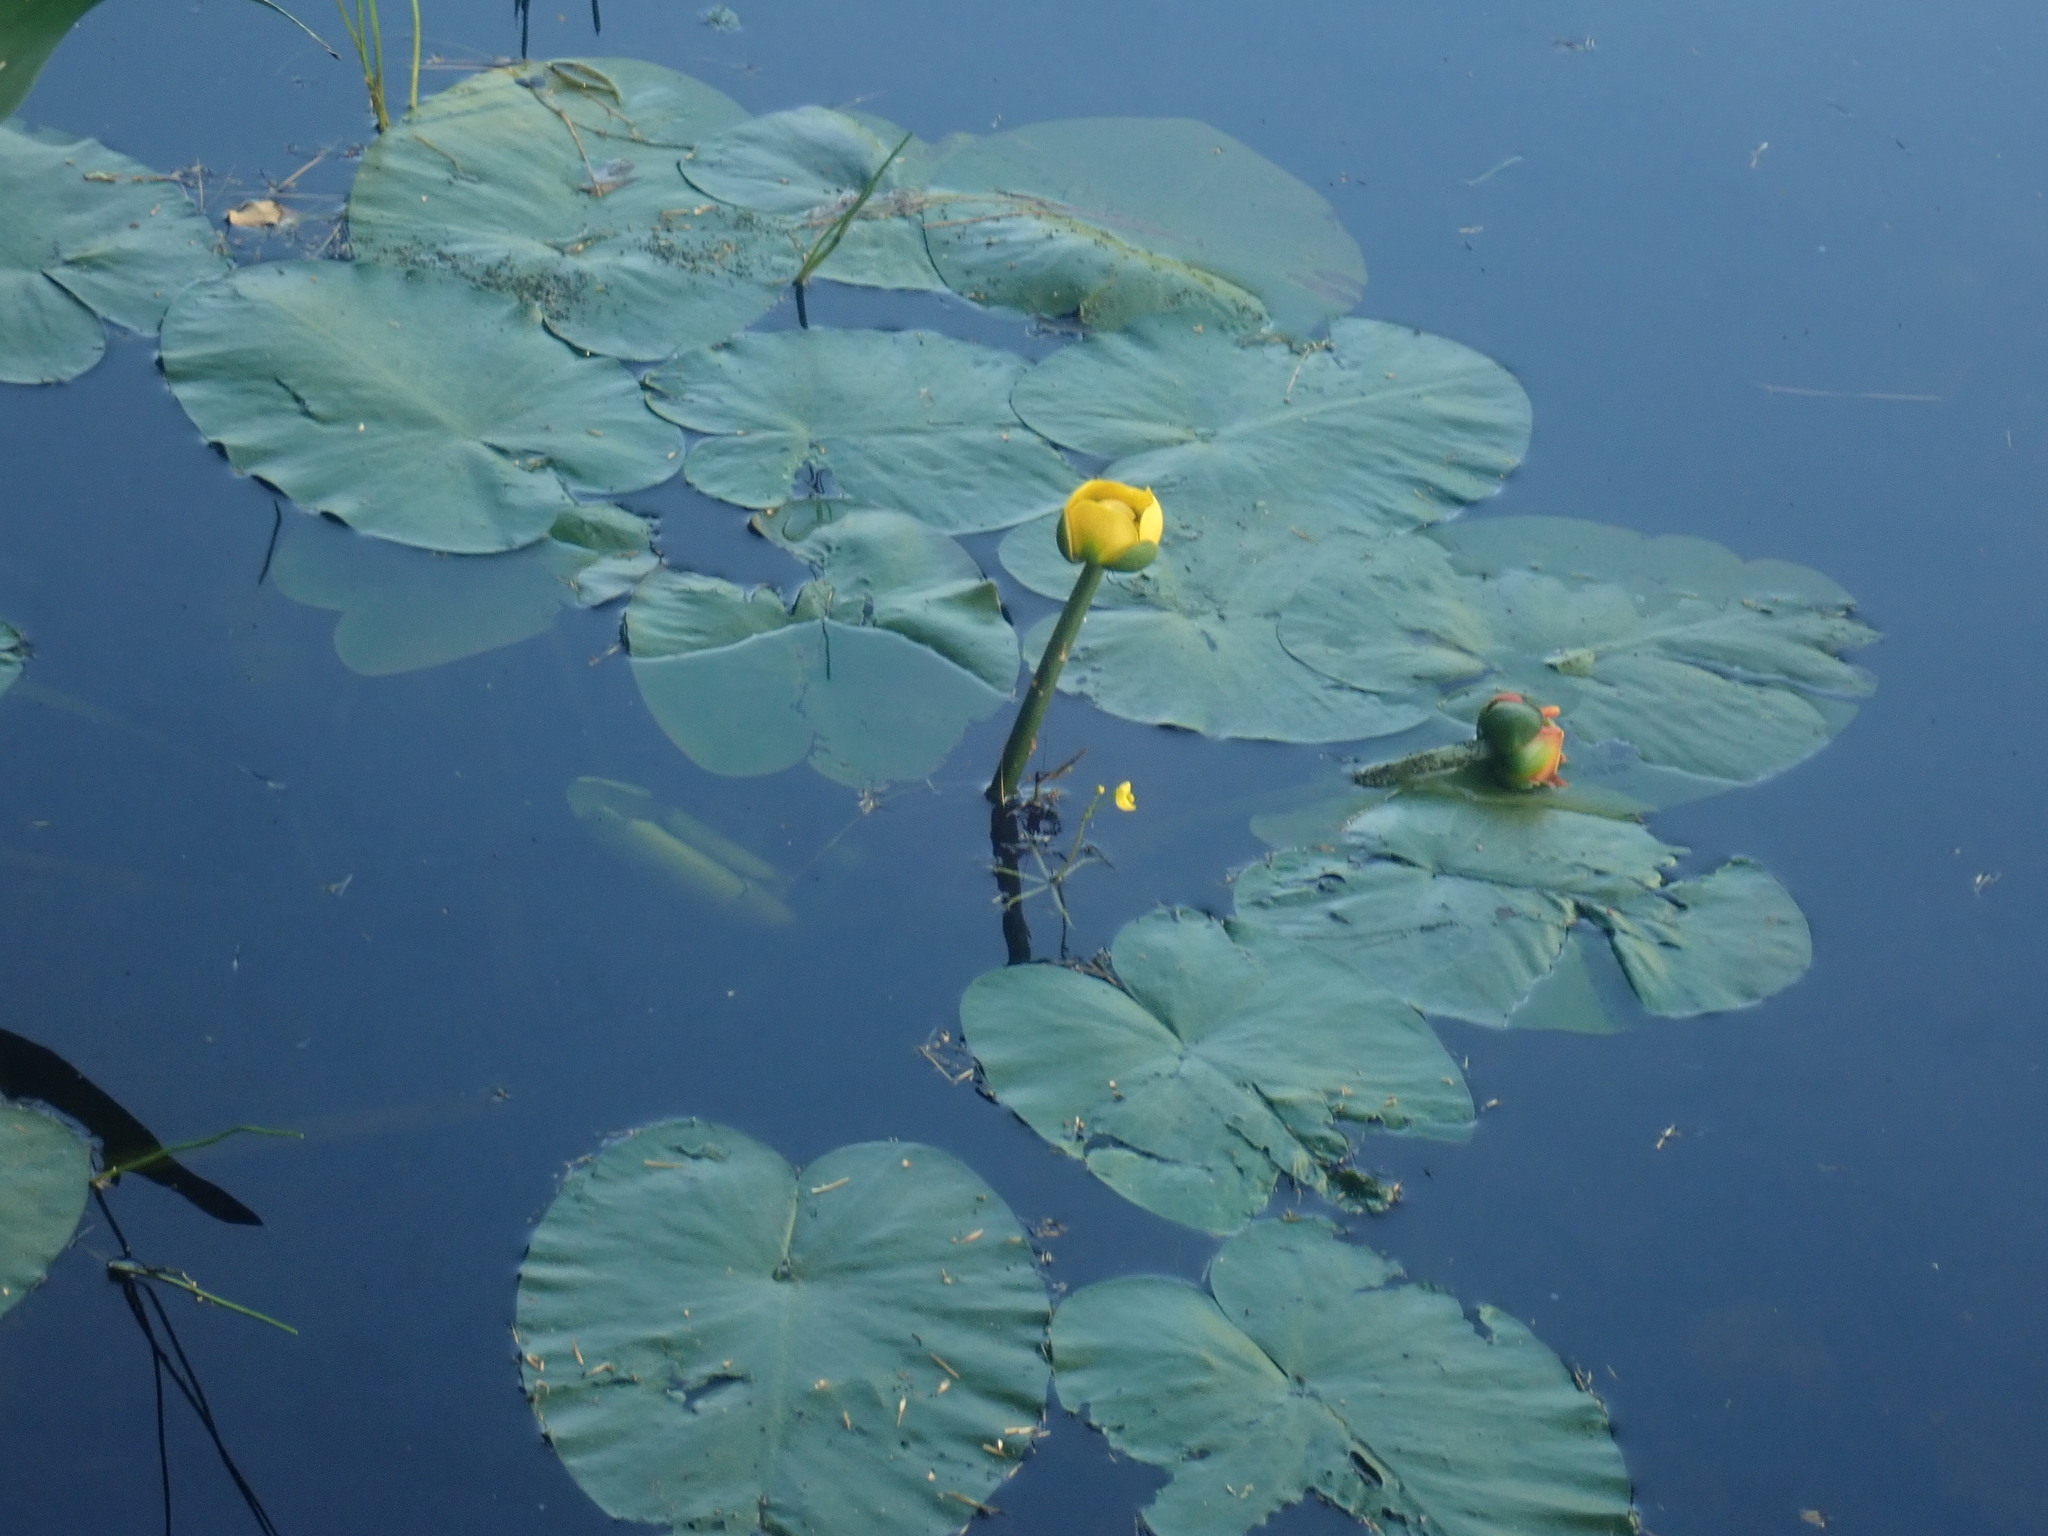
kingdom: Plantae
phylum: Tracheophyta
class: Magnoliopsida
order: Nymphaeales
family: Nymphaeaceae
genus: Nuphar
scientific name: Nuphar variegata
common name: Beaver-root
